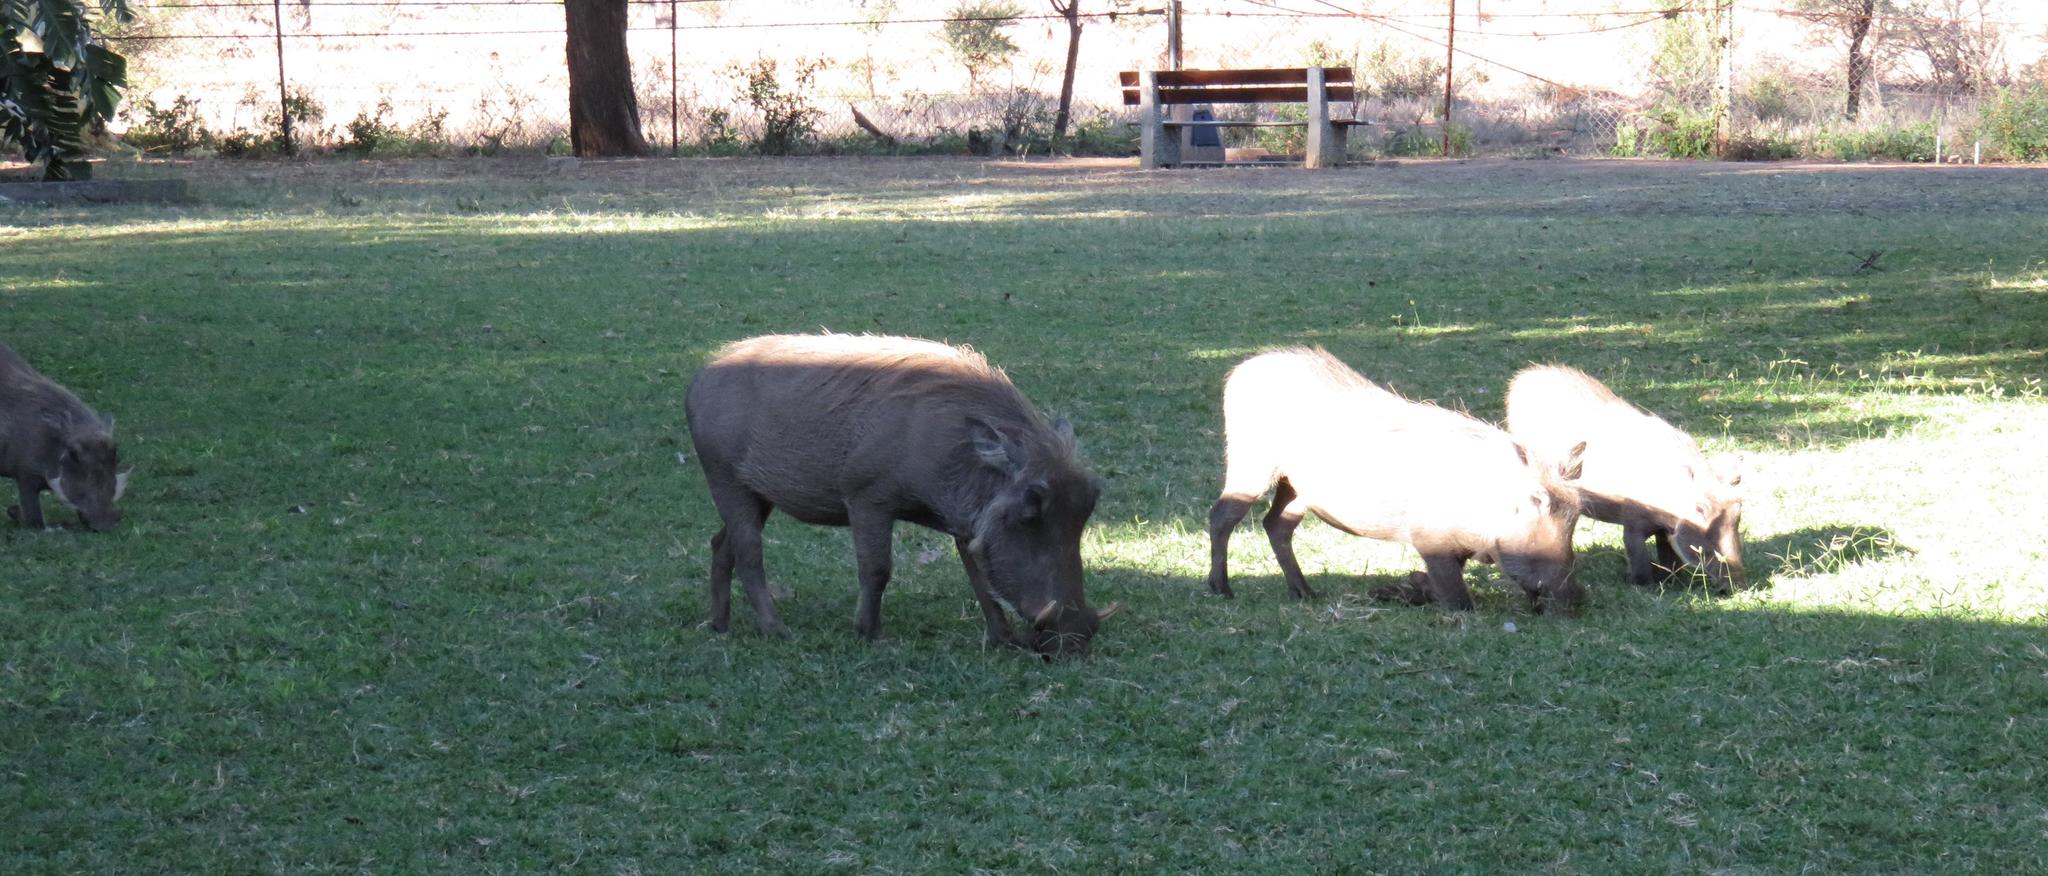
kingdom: Animalia
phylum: Chordata
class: Mammalia
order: Artiodactyla
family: Suidae
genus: Phacochoerus
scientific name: Phacochoerus africanus
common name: Common warthog
